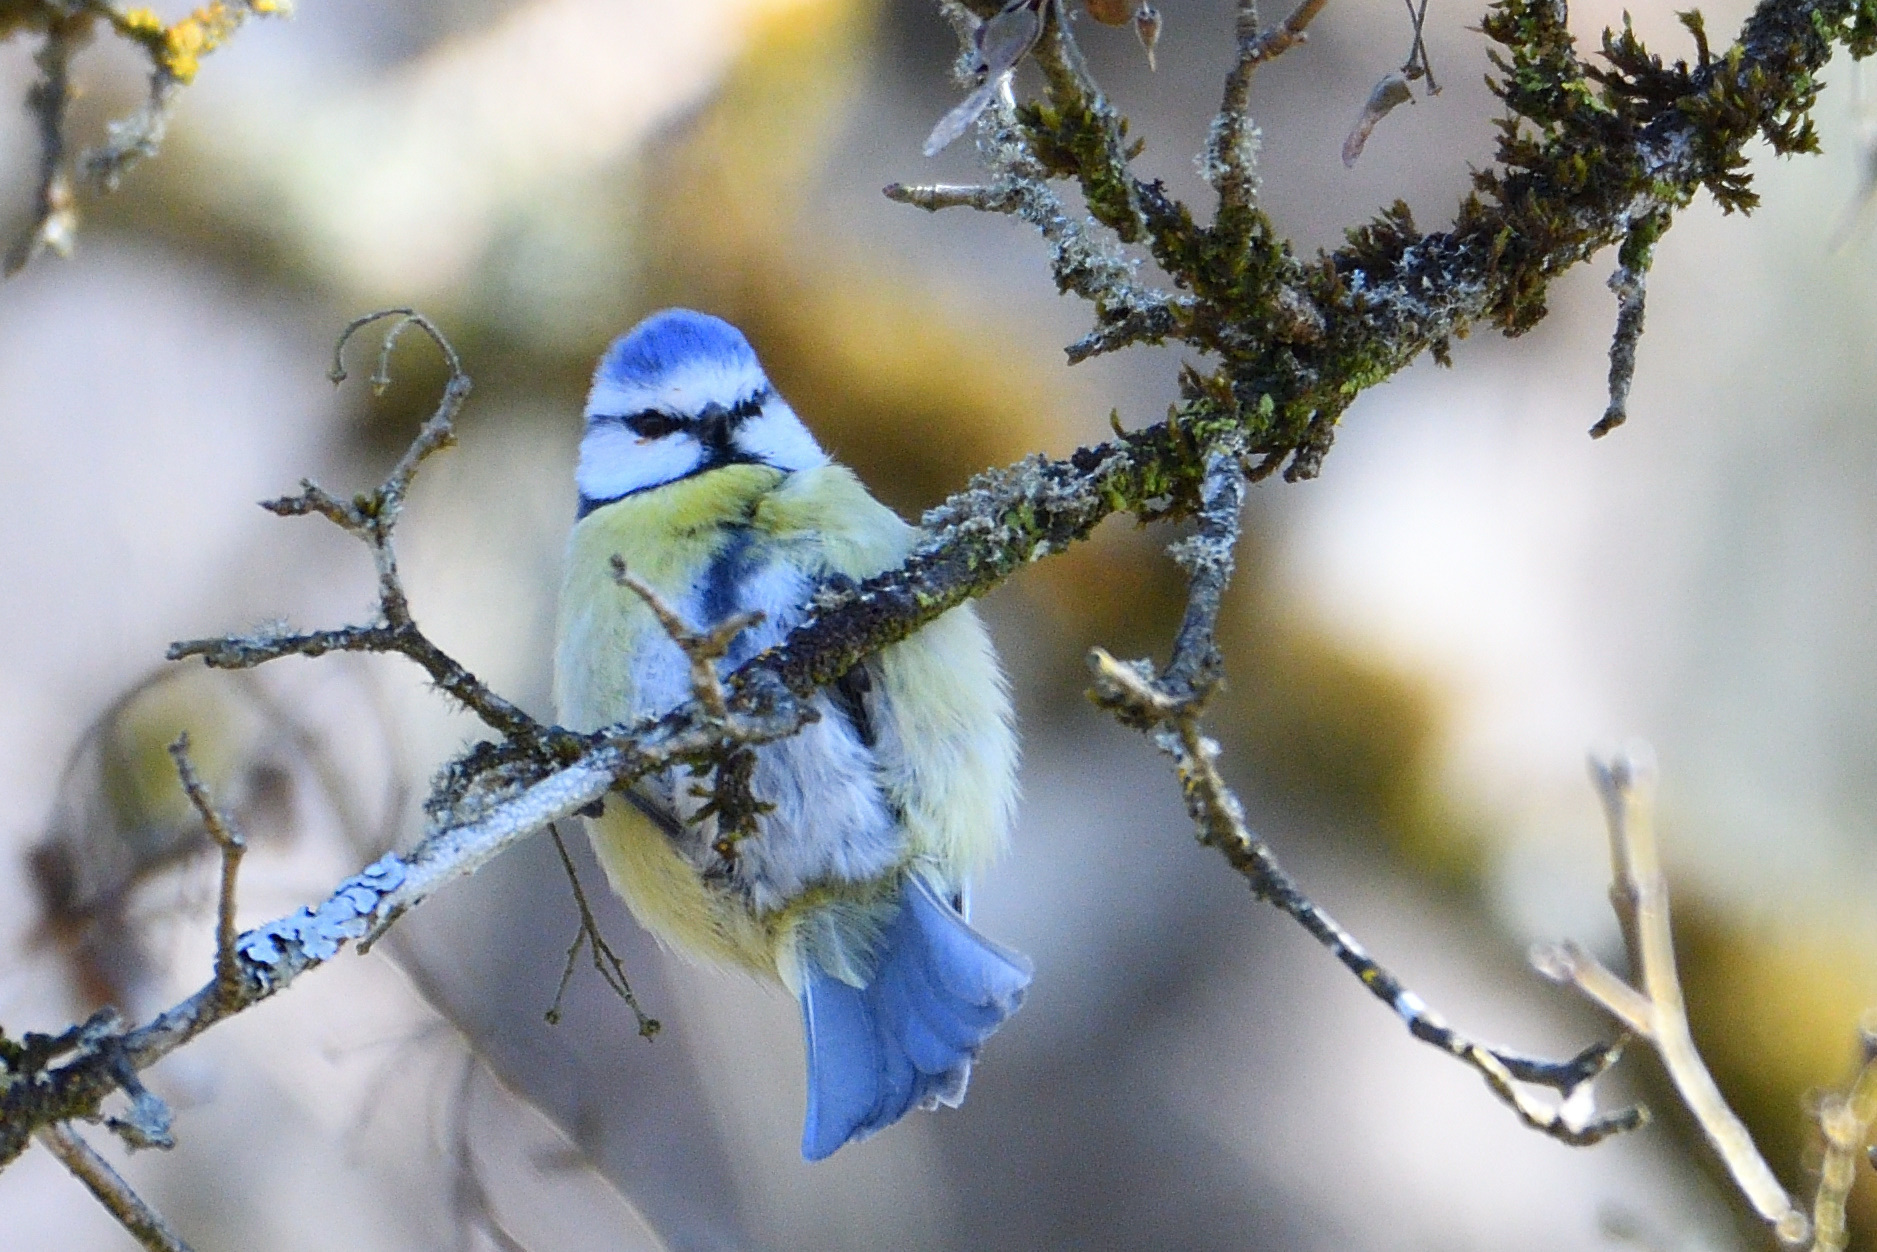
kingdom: Animalia
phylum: Chordata
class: Aves
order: Passeriformes
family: Paridae
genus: Cyanistes
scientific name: Cyanistes caeruleus
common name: Eurasian blue tit
